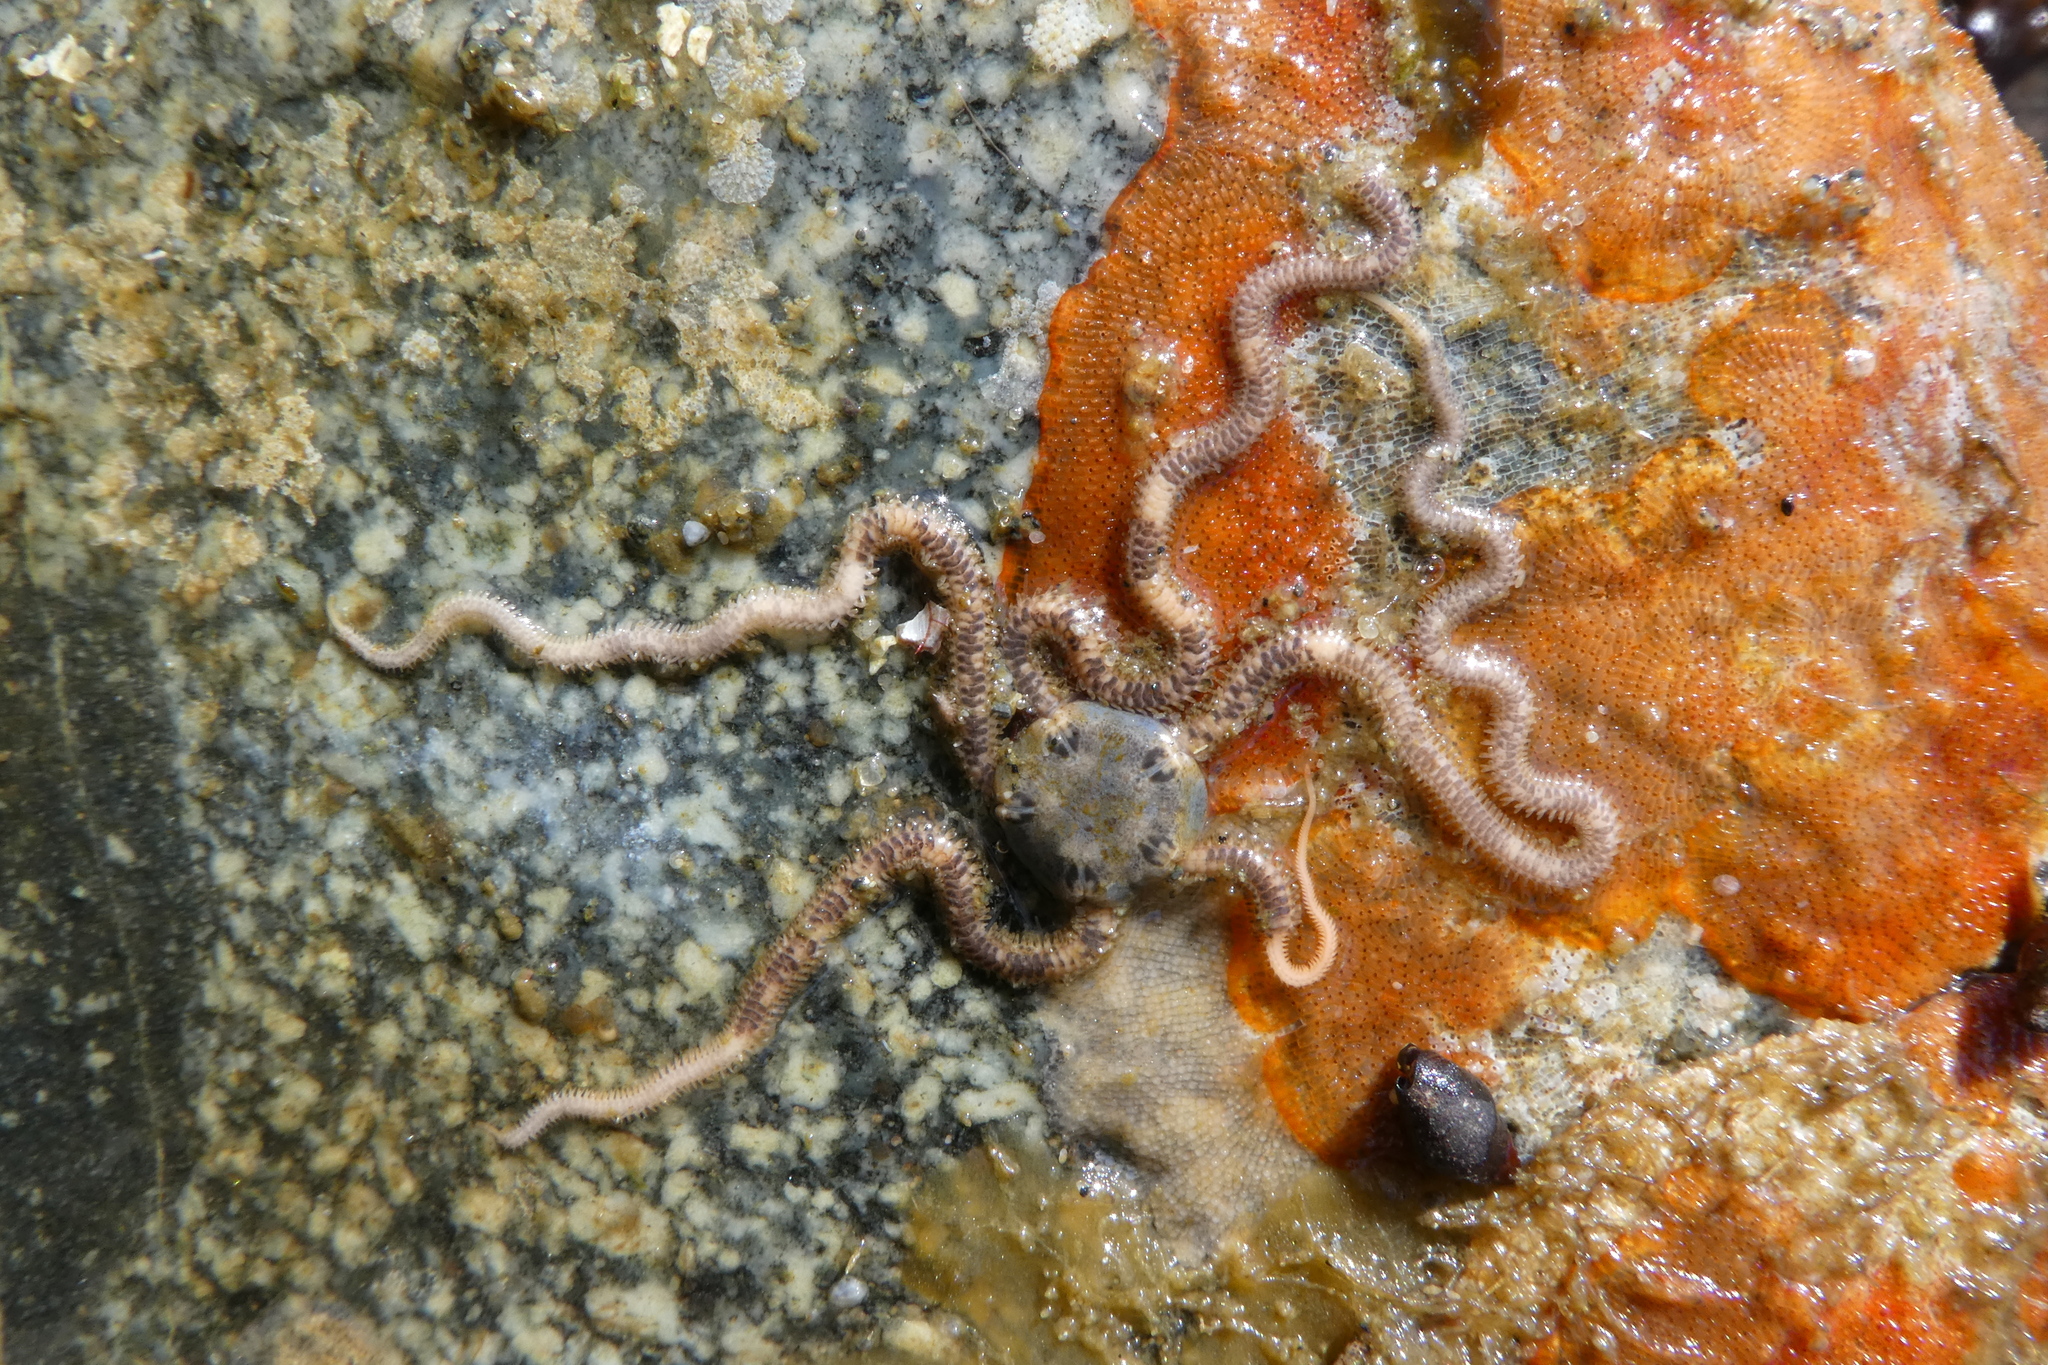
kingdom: Animalia
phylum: Echinodermata
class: Ophiuroidea
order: Amphilepidida
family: Amphiuridae
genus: Amphiodia
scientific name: Amphiodia occidentalis
